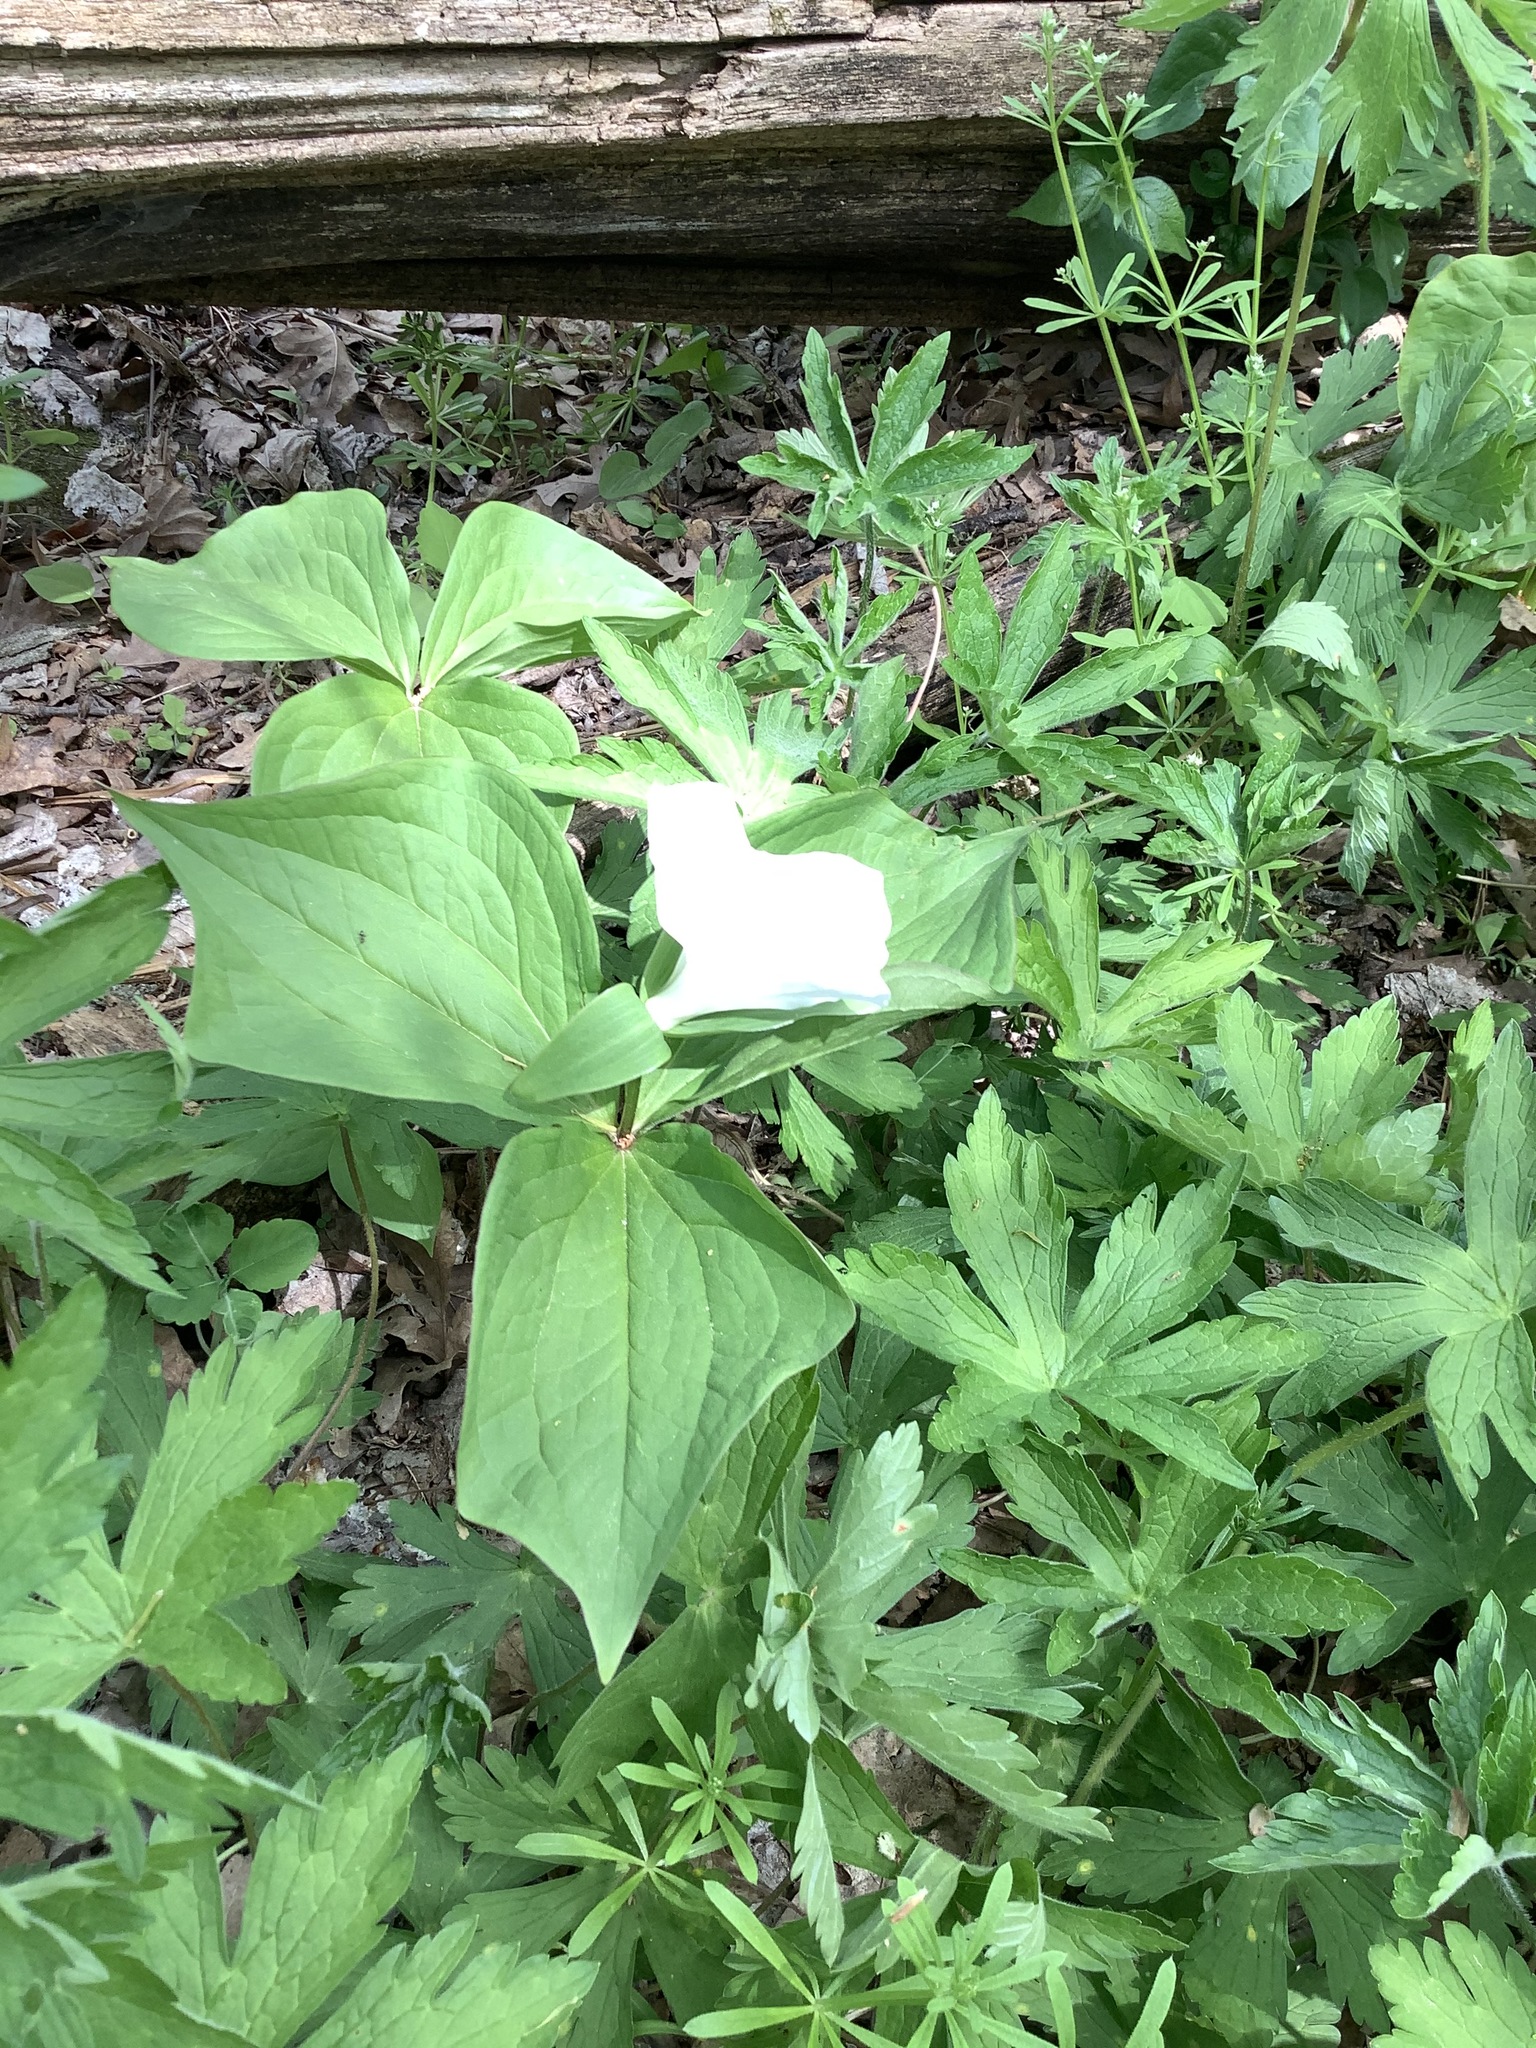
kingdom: Plantae
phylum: Tracheophyta
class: Liliopsida
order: Liliales
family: Melanthiaceae
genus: Trillium
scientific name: Trillium grandiflorum
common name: Great white trillium
